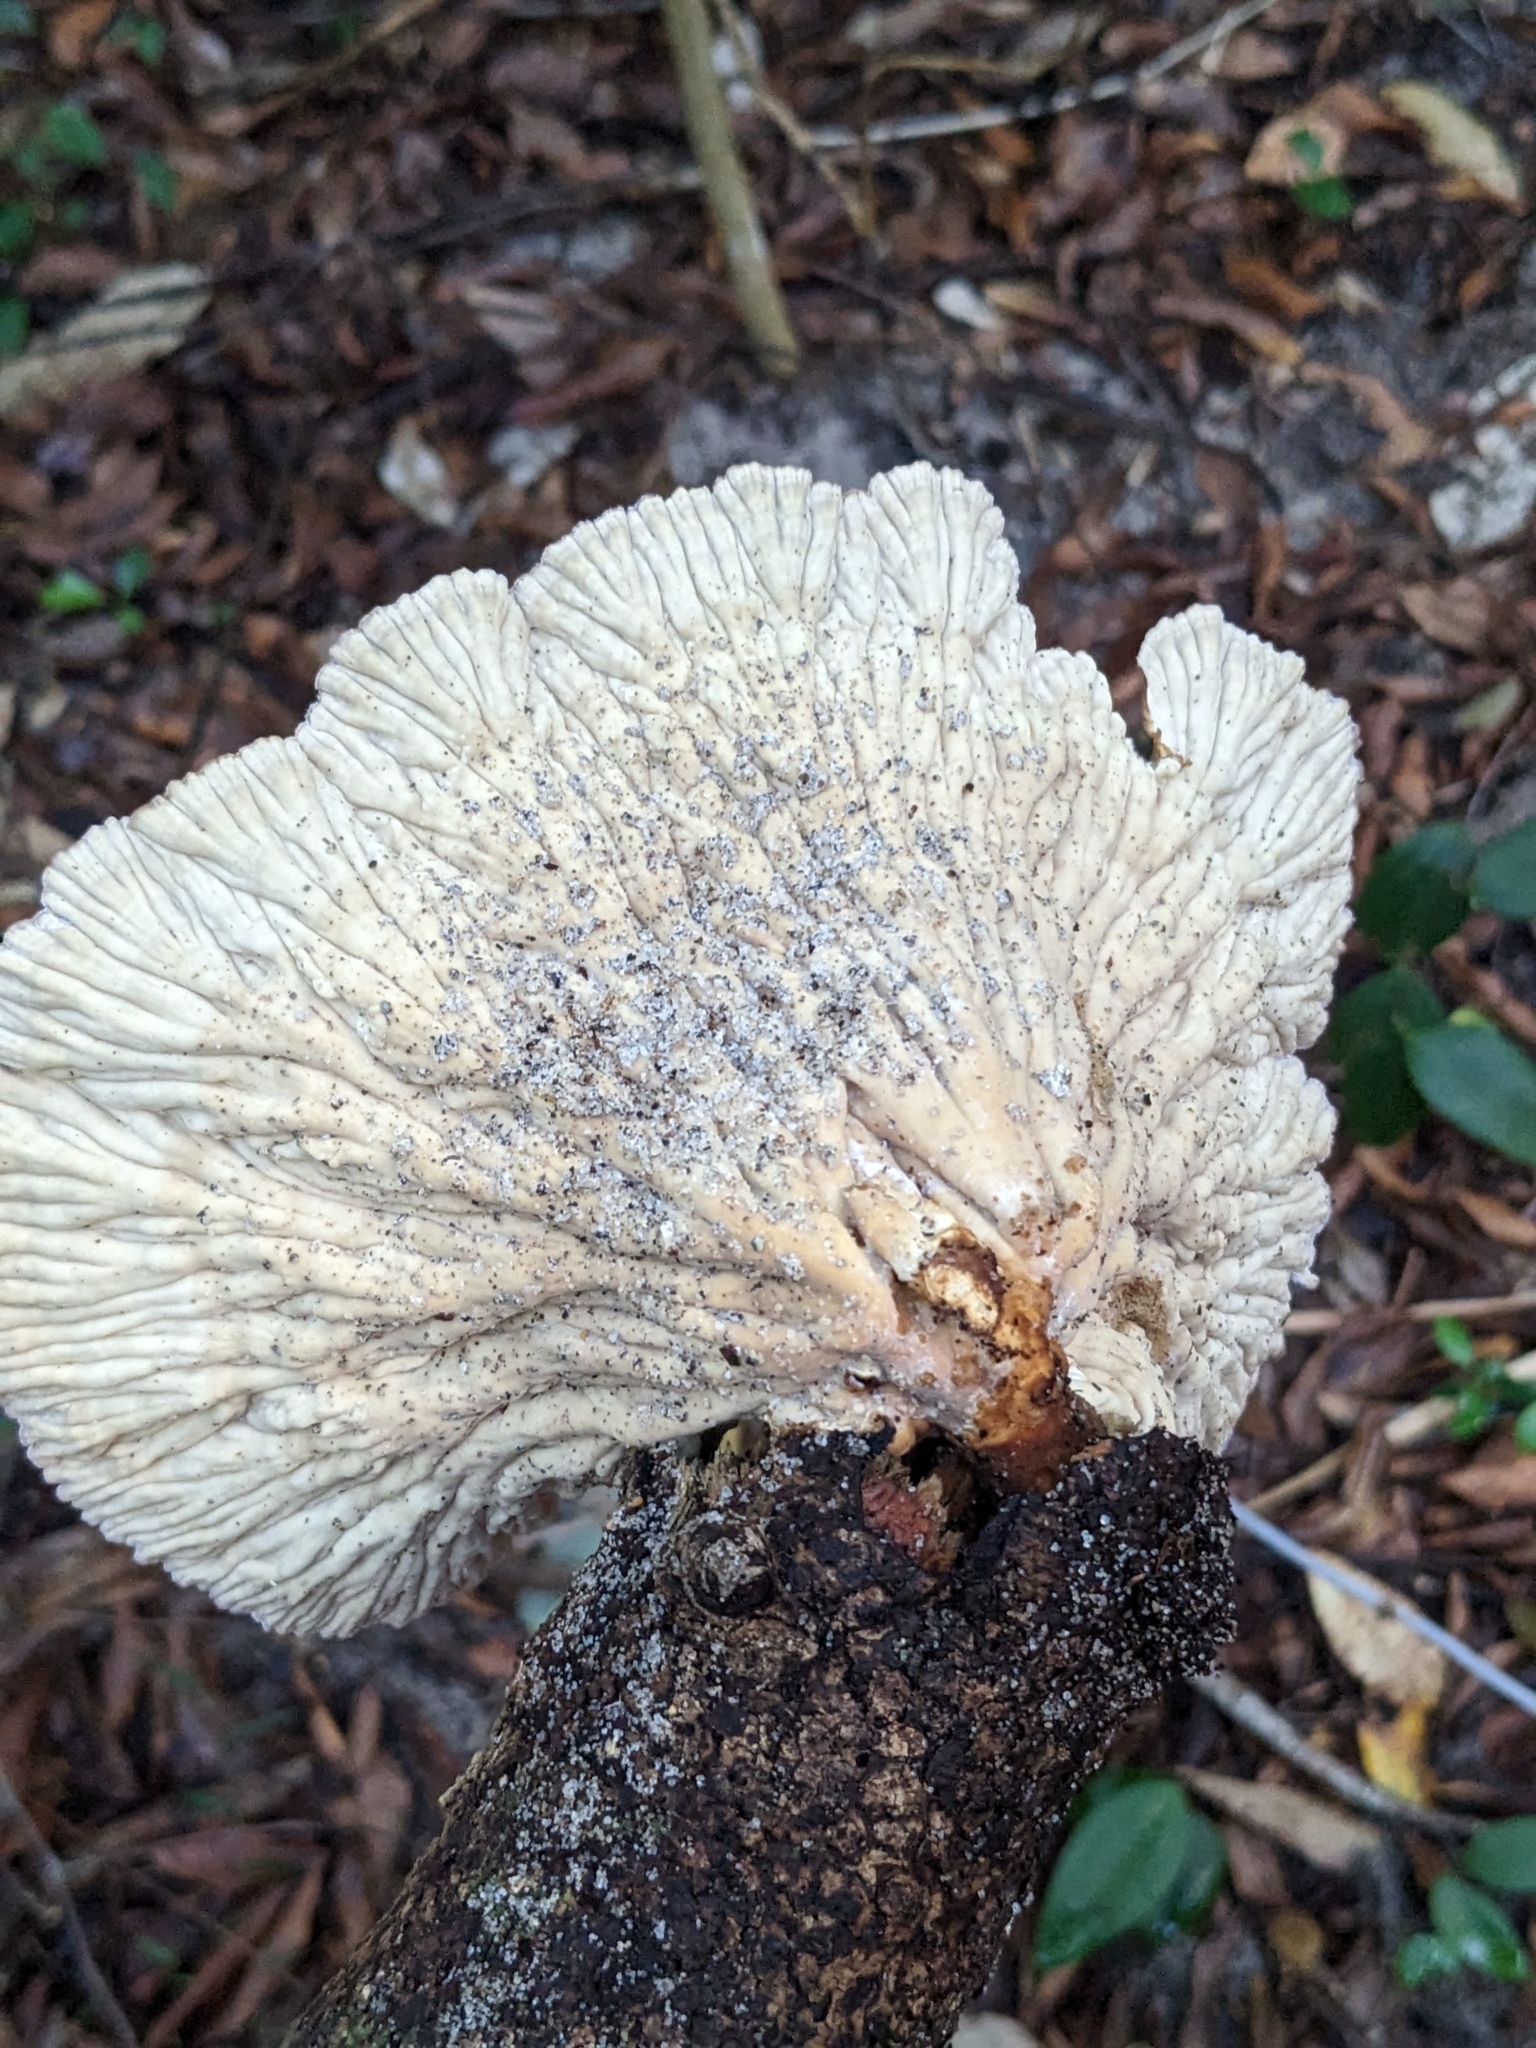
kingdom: Fungi
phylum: Basidiomycota
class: Agaricomycetes
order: Polyporales
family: Panaceae
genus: Cymatoderma
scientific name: Cymatoderma elegans
